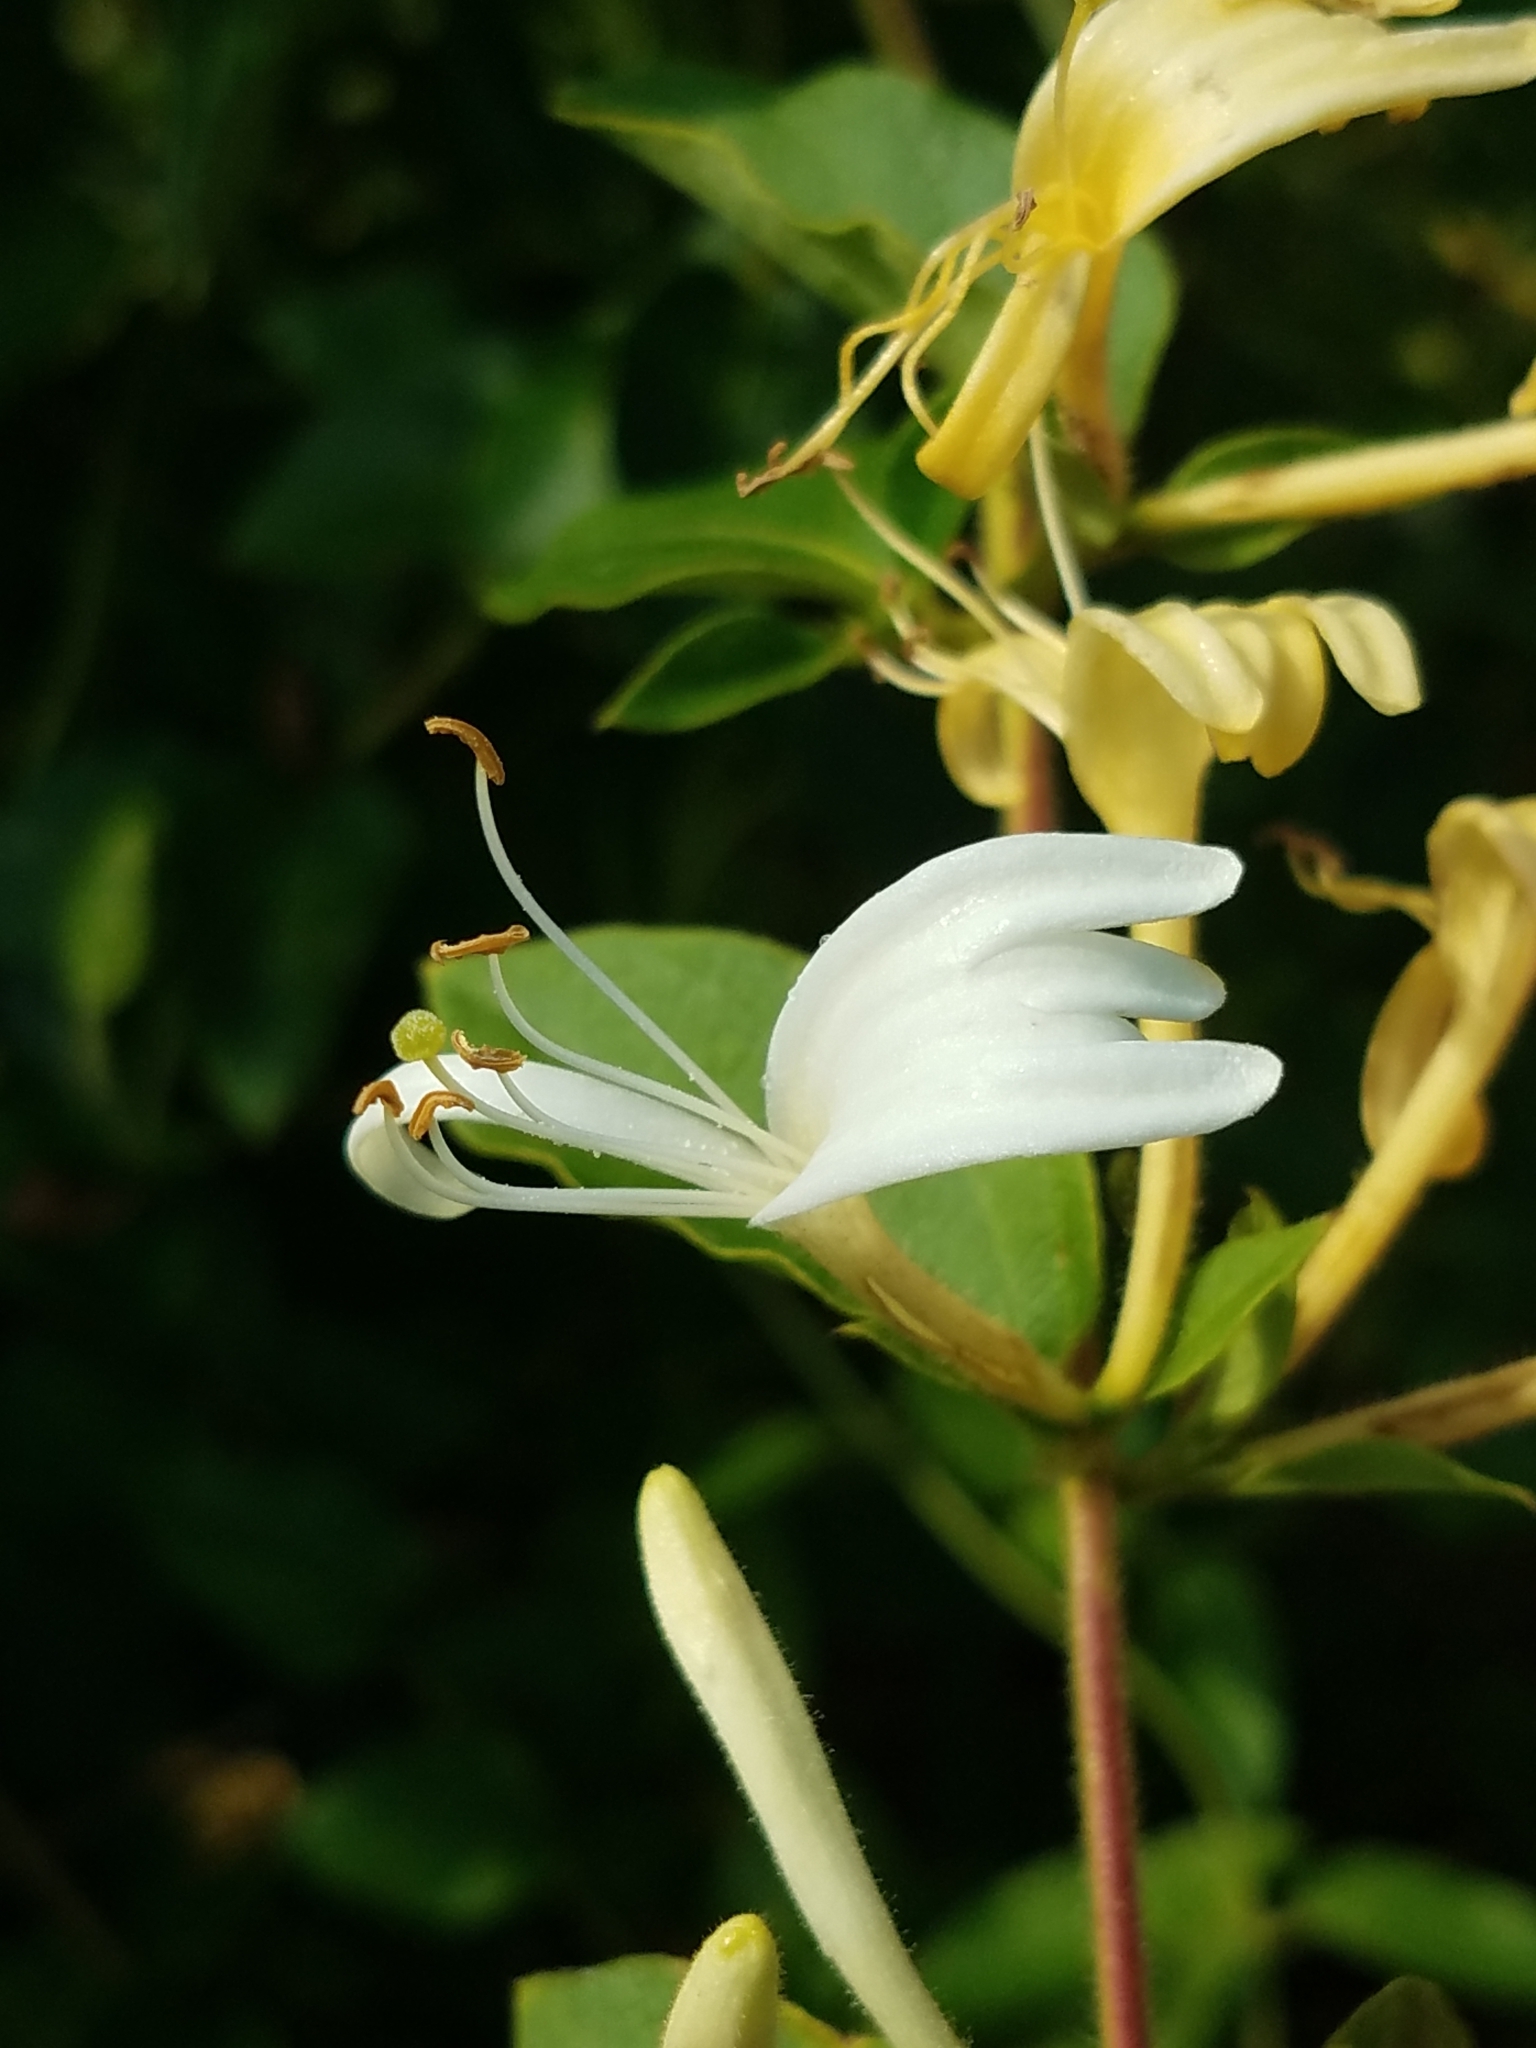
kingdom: Plantae
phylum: Tracheophyta
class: Magnoliopsida
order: Dipsacales
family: Caprifoliaceae
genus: Lonicera
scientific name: Lonicera japonica
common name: Japanese honeysuckle
